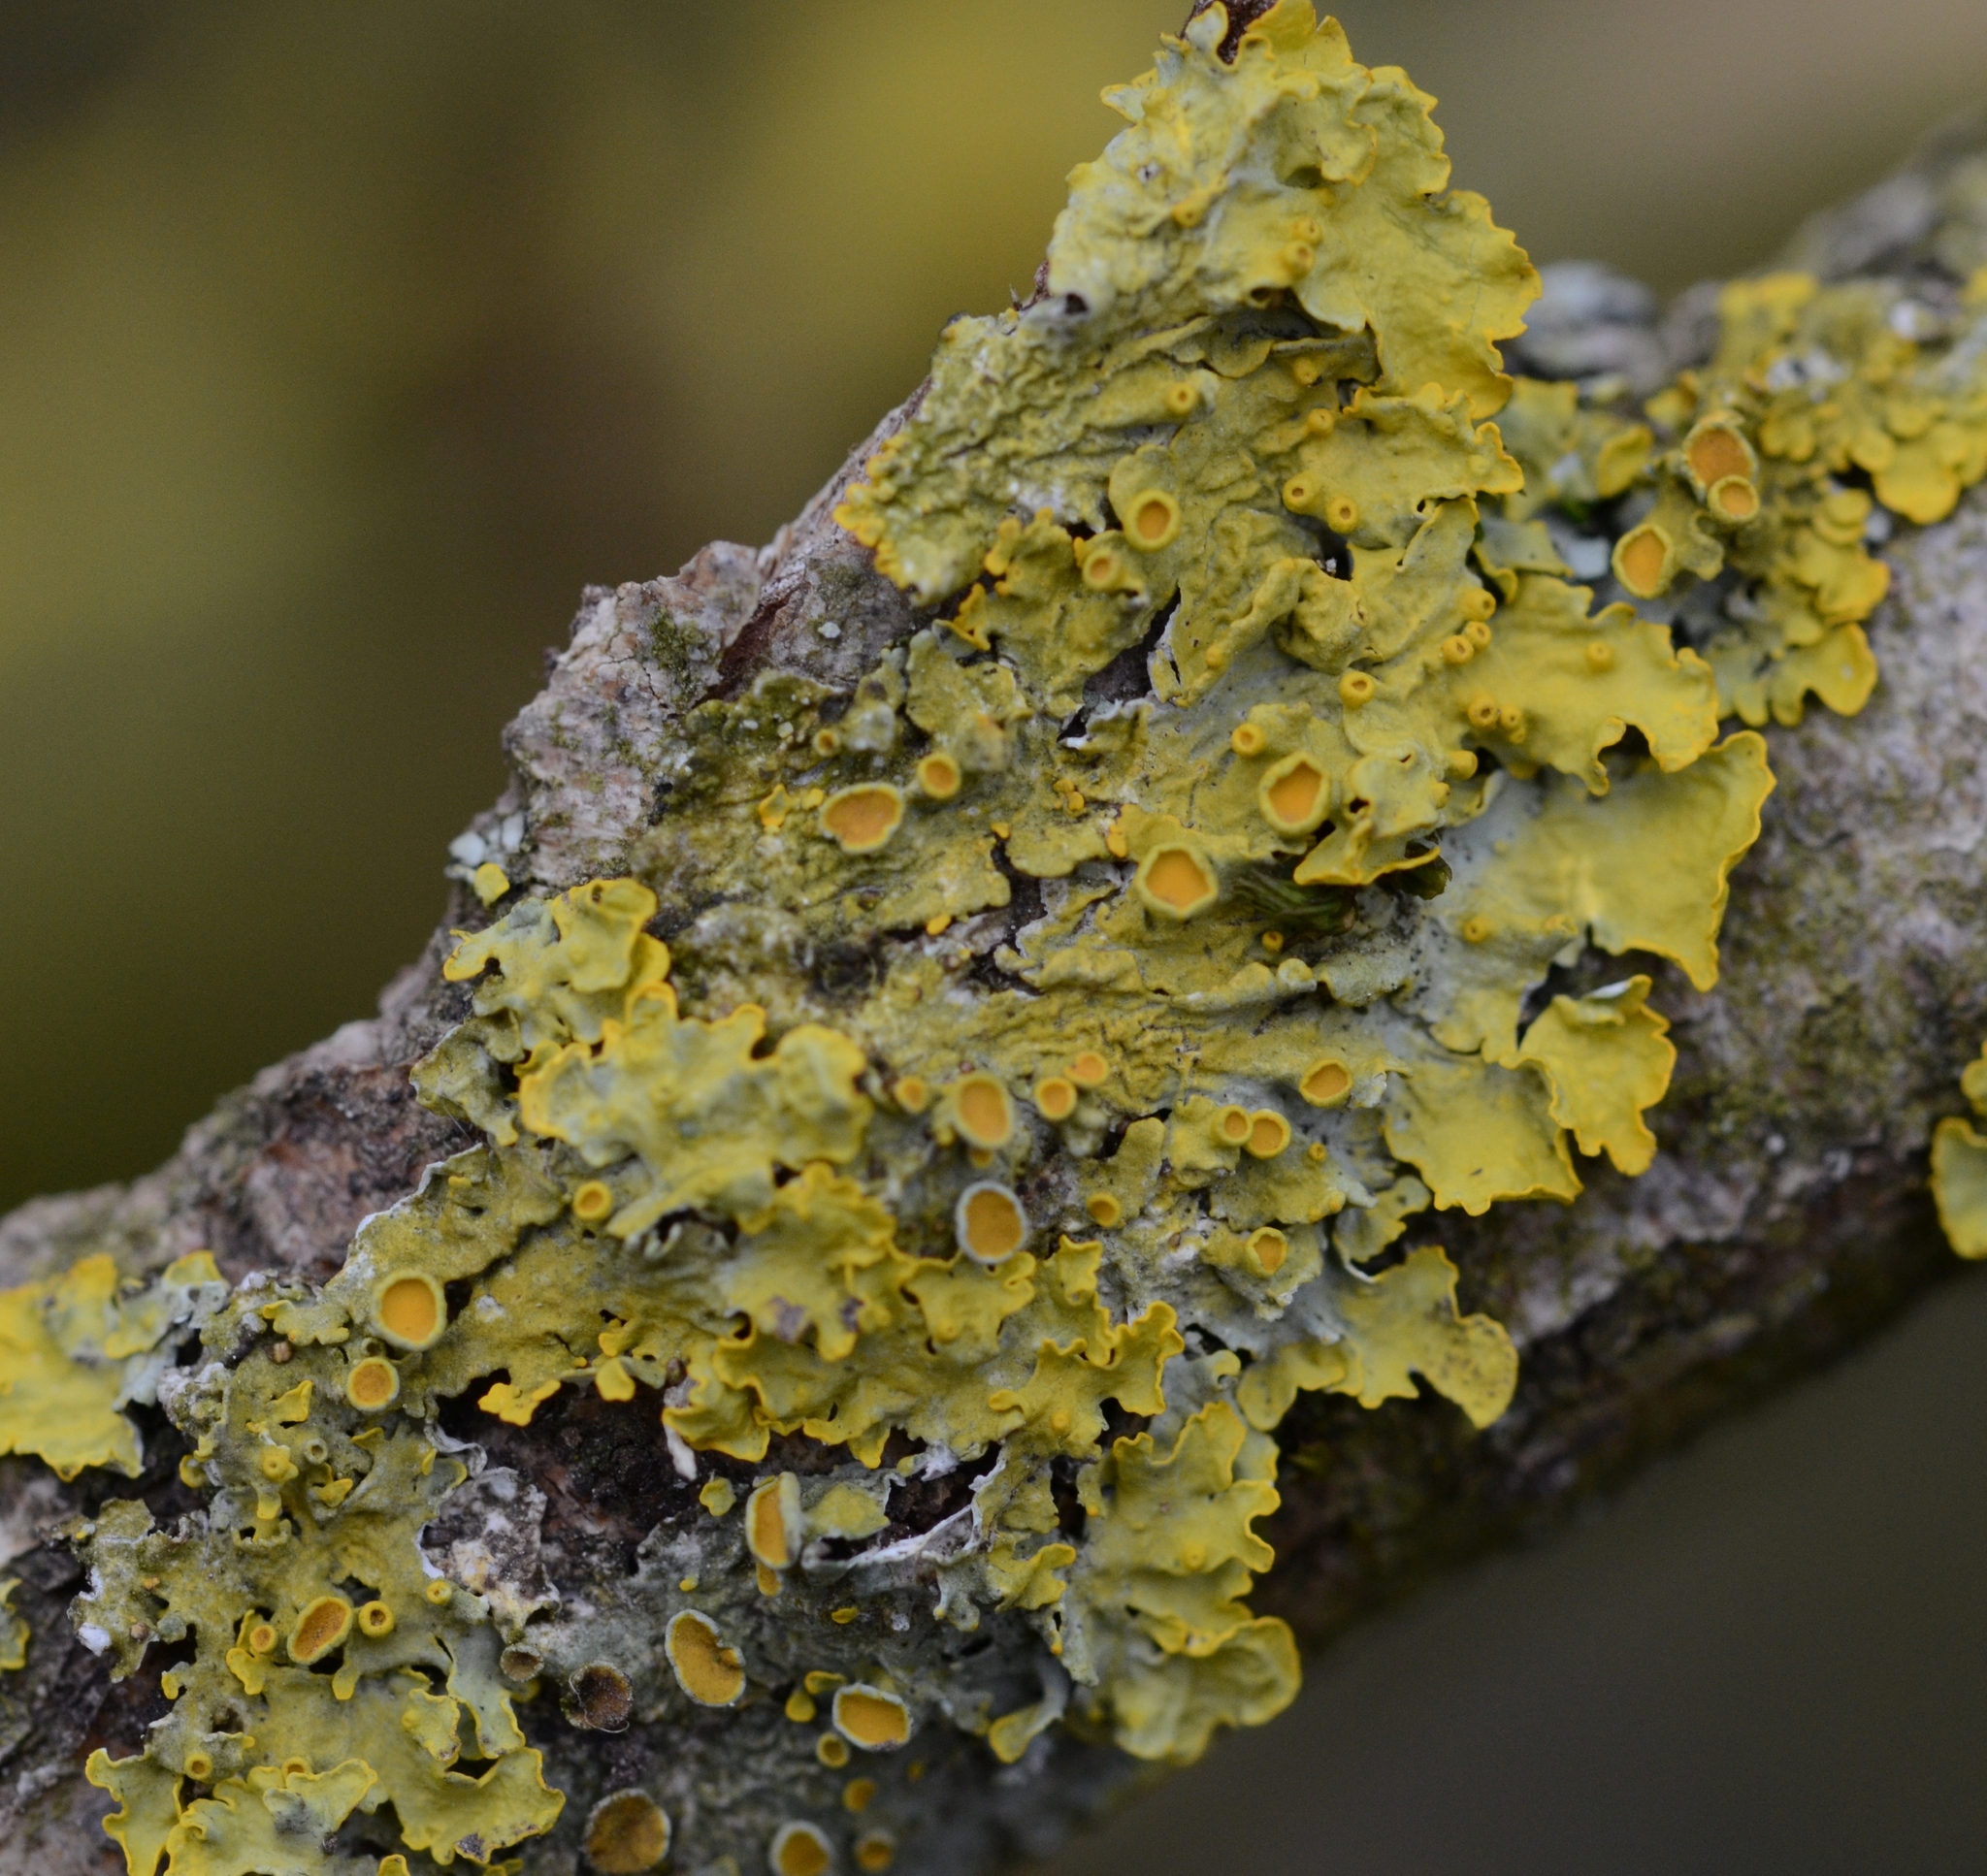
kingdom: Fungi
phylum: Ascomycota
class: Lecanoromycetes
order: Teloschistales
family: Teloschistaceae
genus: Xanthoria
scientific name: Xanthoria parietina
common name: Common orange lichen
